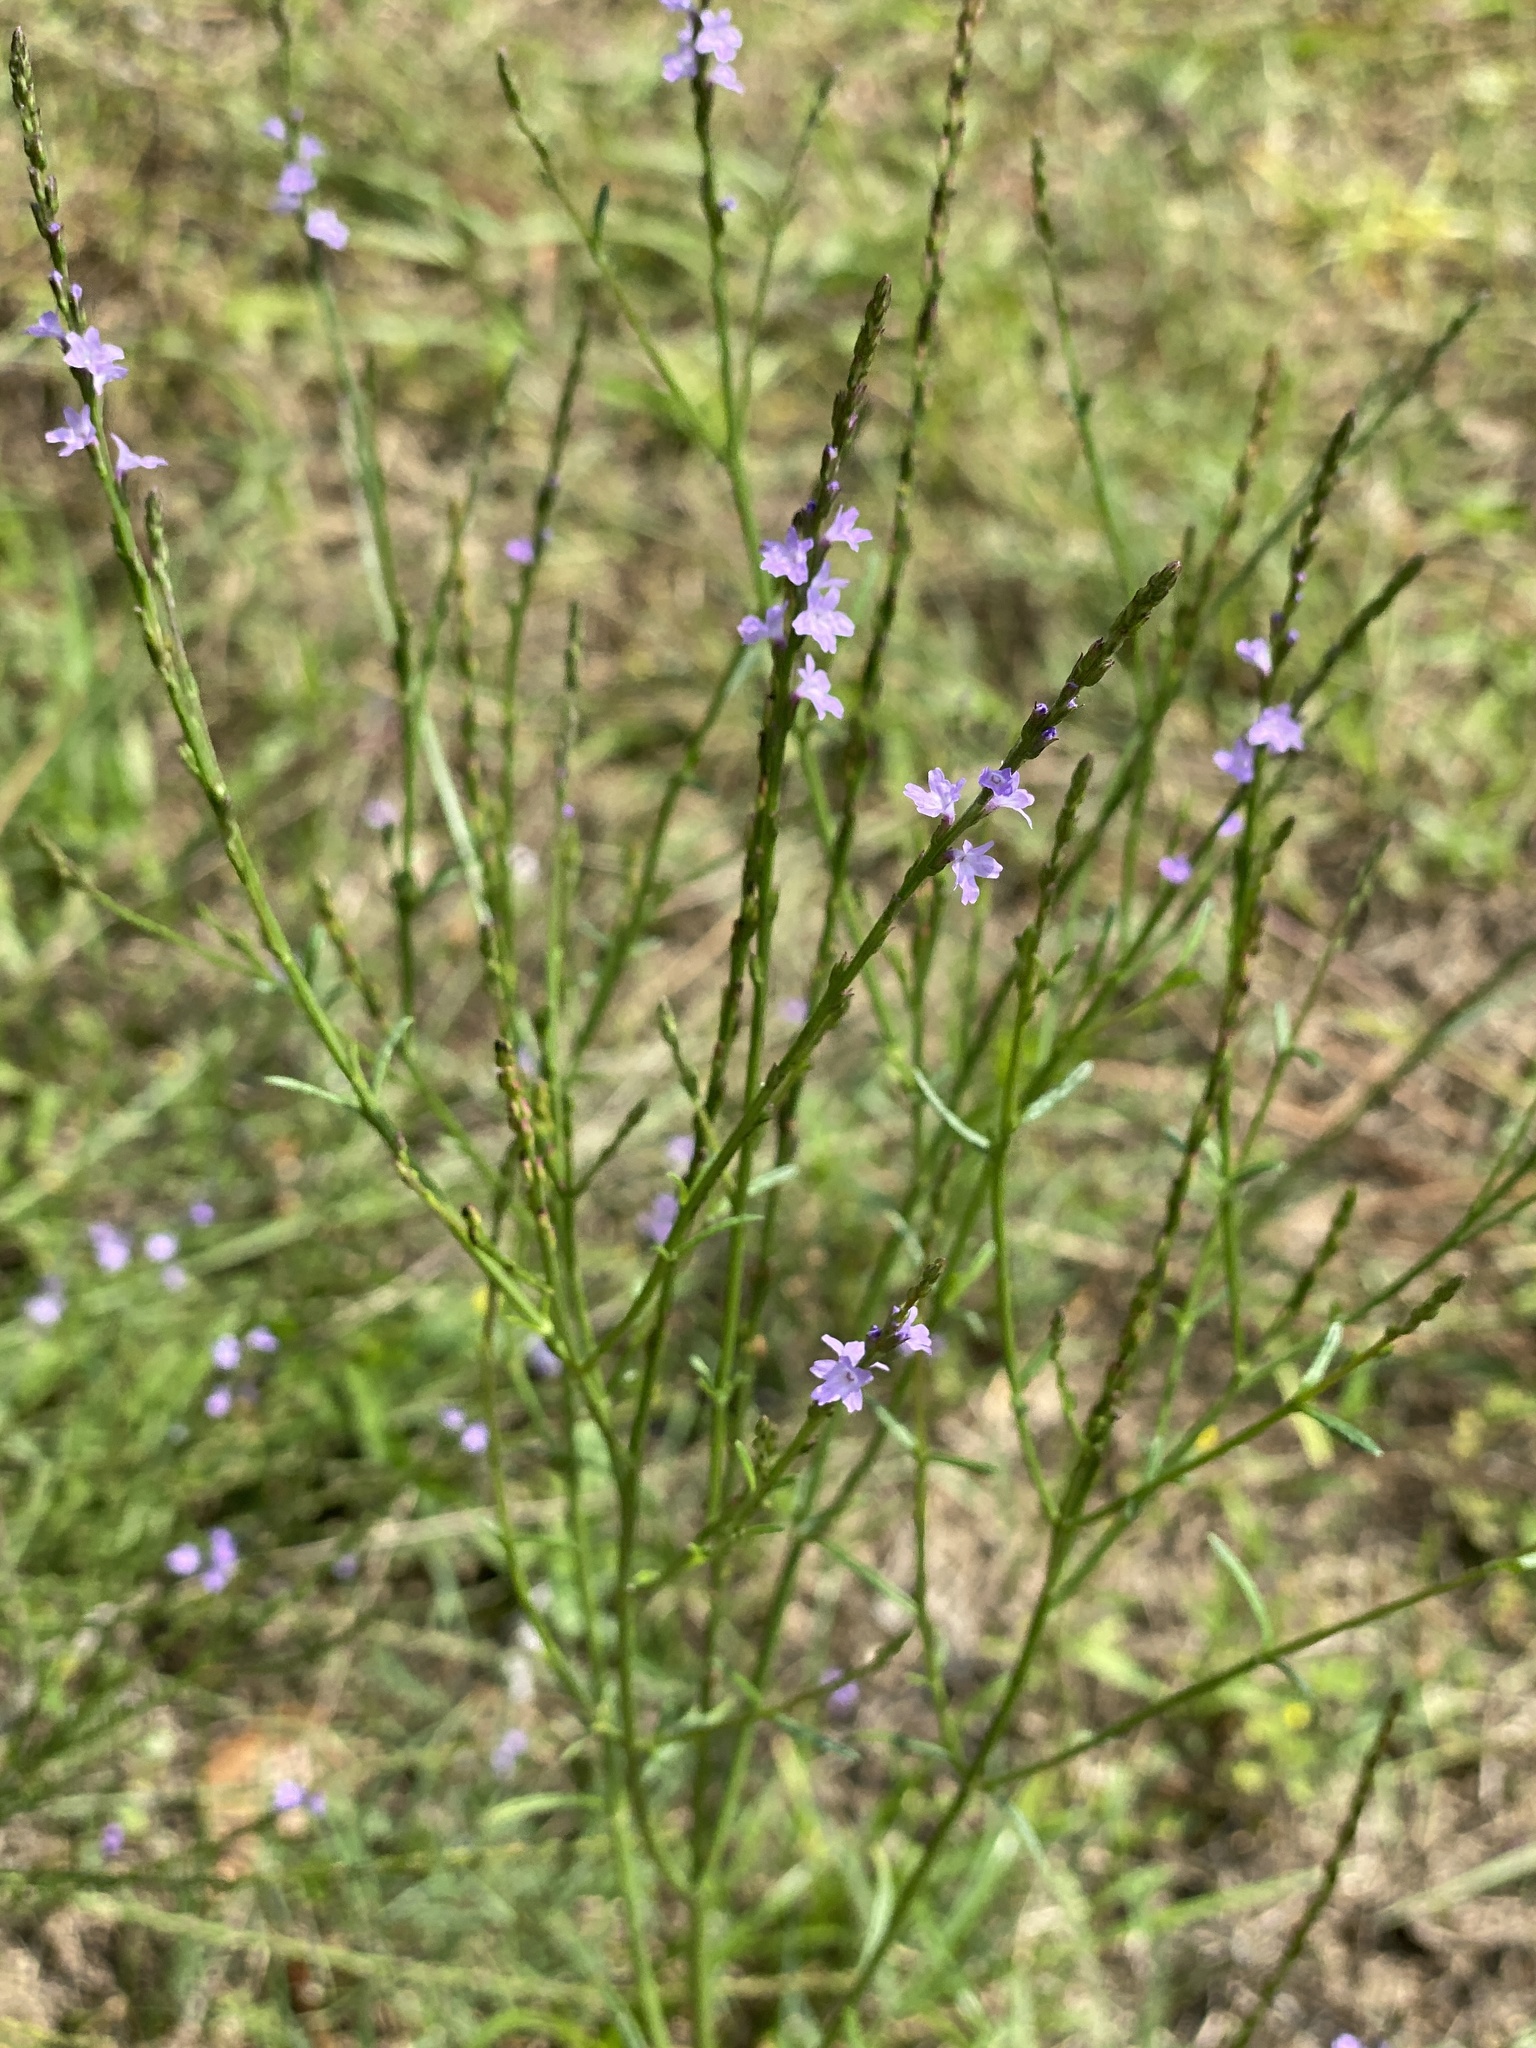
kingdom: Plantae
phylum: Tracheophyta
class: Magnoliopsida
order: Lamiales
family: Verbenaceae
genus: Verbena
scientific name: Verbena halei
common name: Texas vervain
